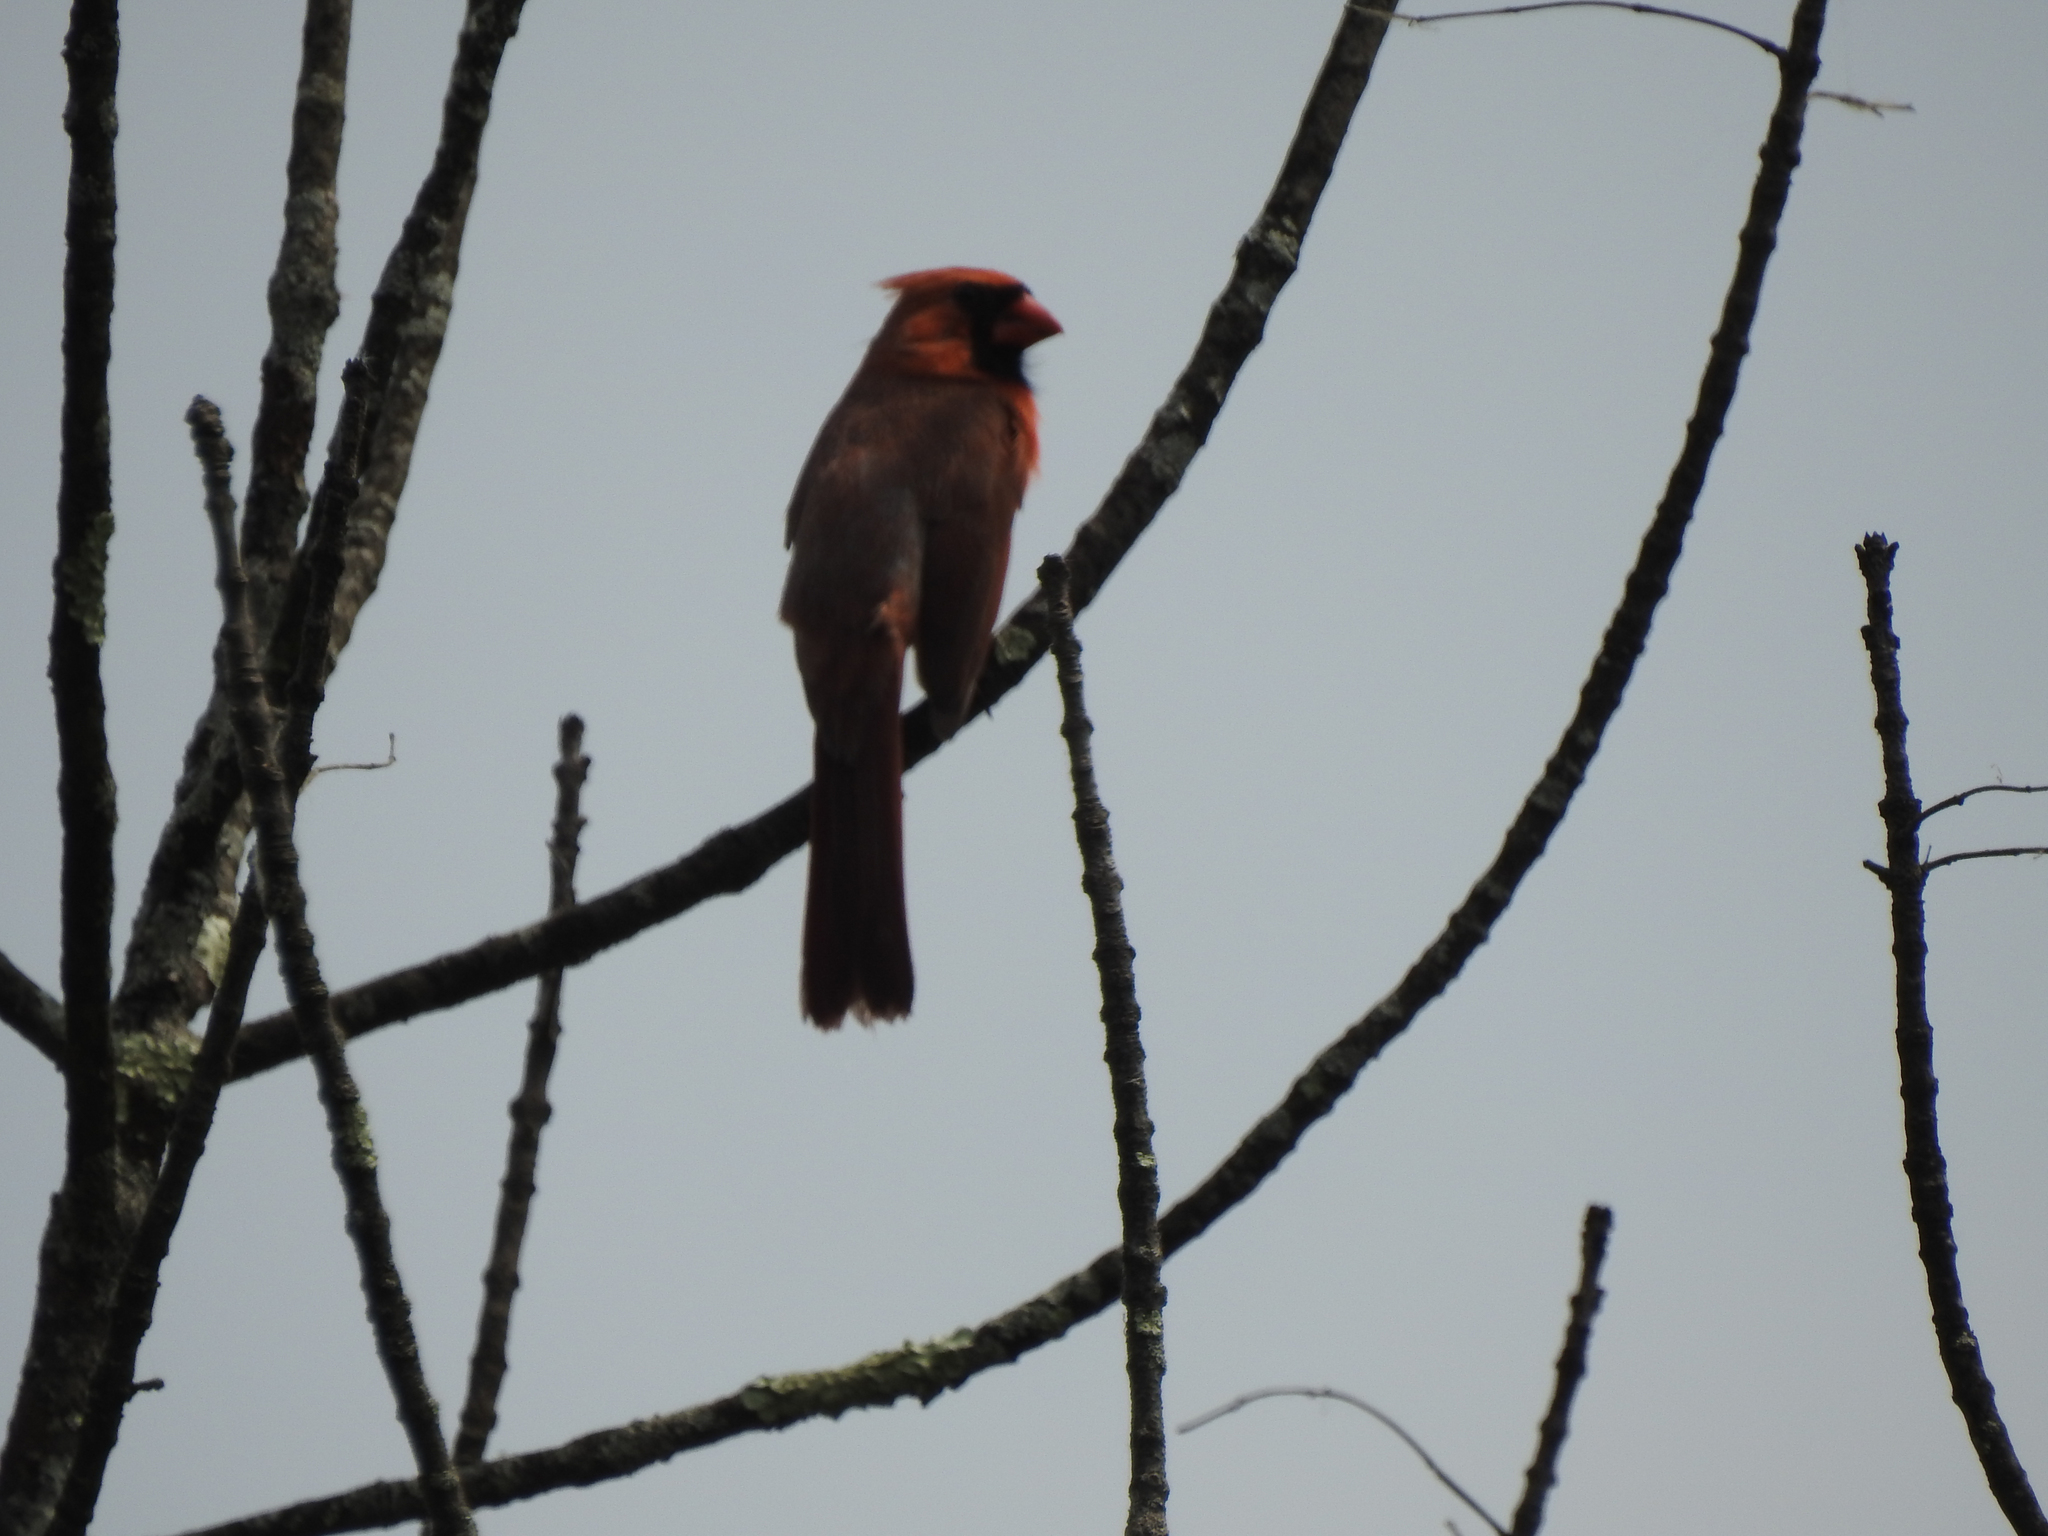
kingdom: Animalia
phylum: Chordata
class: Aves
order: Passeriformes
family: Cardinalidae
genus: Cardinalis
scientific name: Cardinalis cardinalis
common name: Northern cardinal
